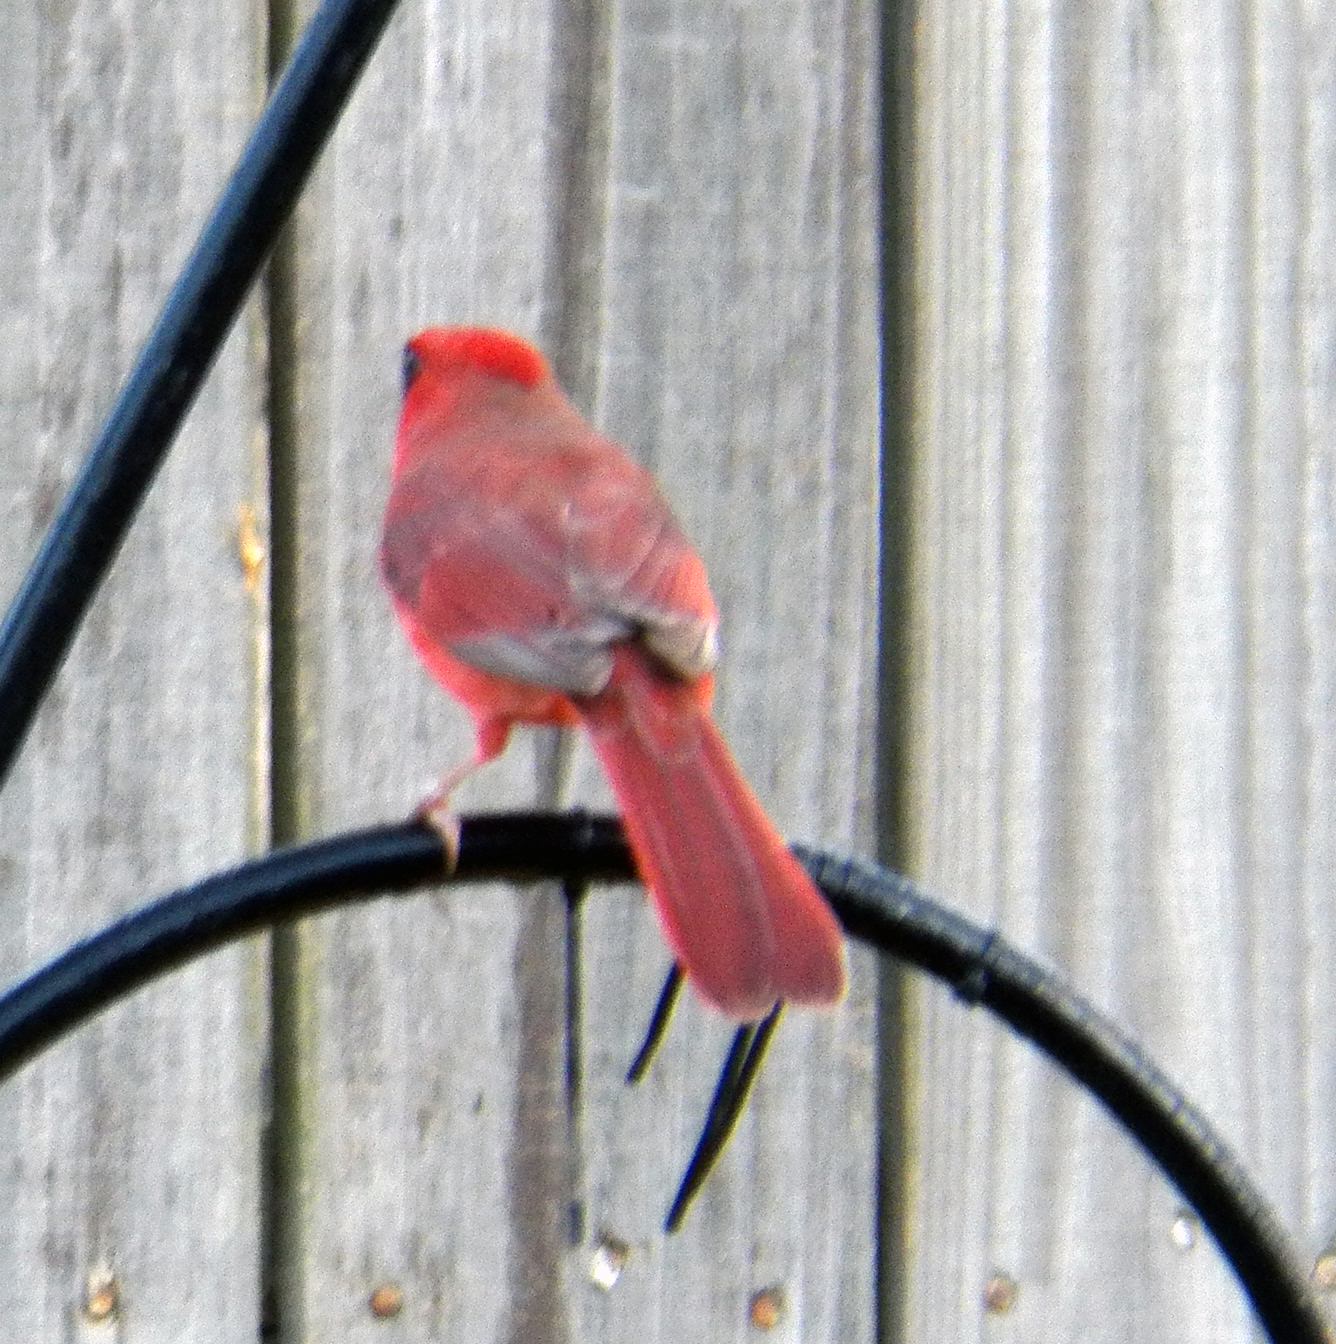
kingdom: Animalia
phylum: Chordata
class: Aves
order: Passeriformes
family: Cardinalidae
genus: Cardinalis
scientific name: Cardinalis cardinalis
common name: Northern cardinal
